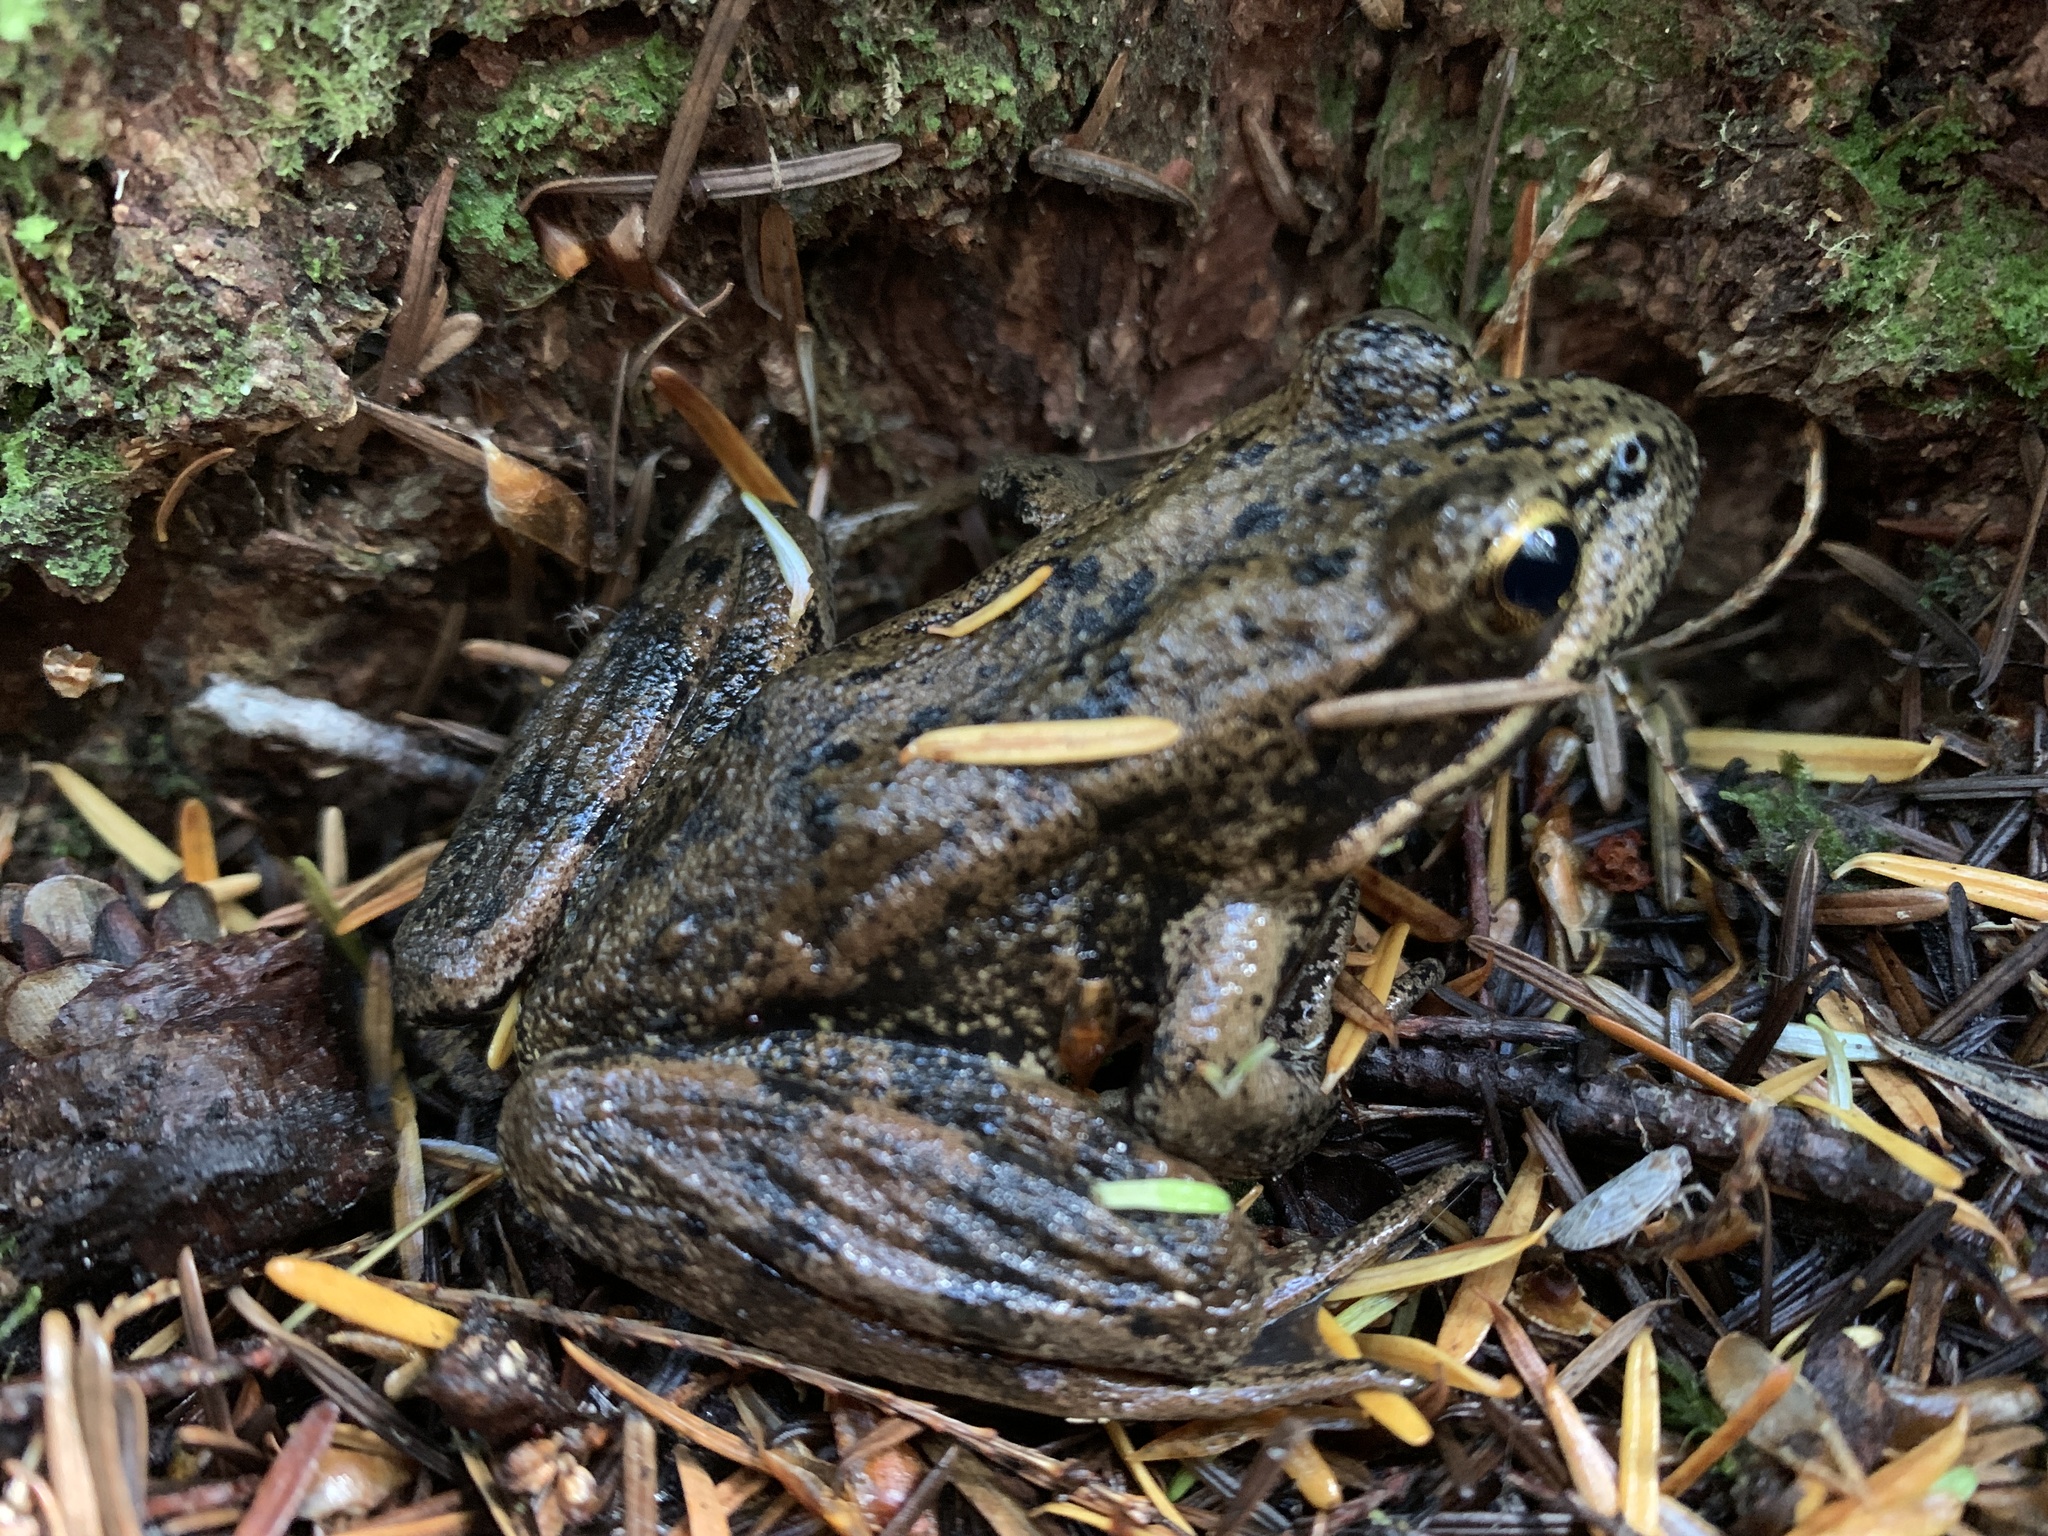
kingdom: Animalia
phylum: Chordata
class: Amphibia
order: Anura
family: Ranidae
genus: Rana
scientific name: Rana aurora
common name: Red-legged frog
